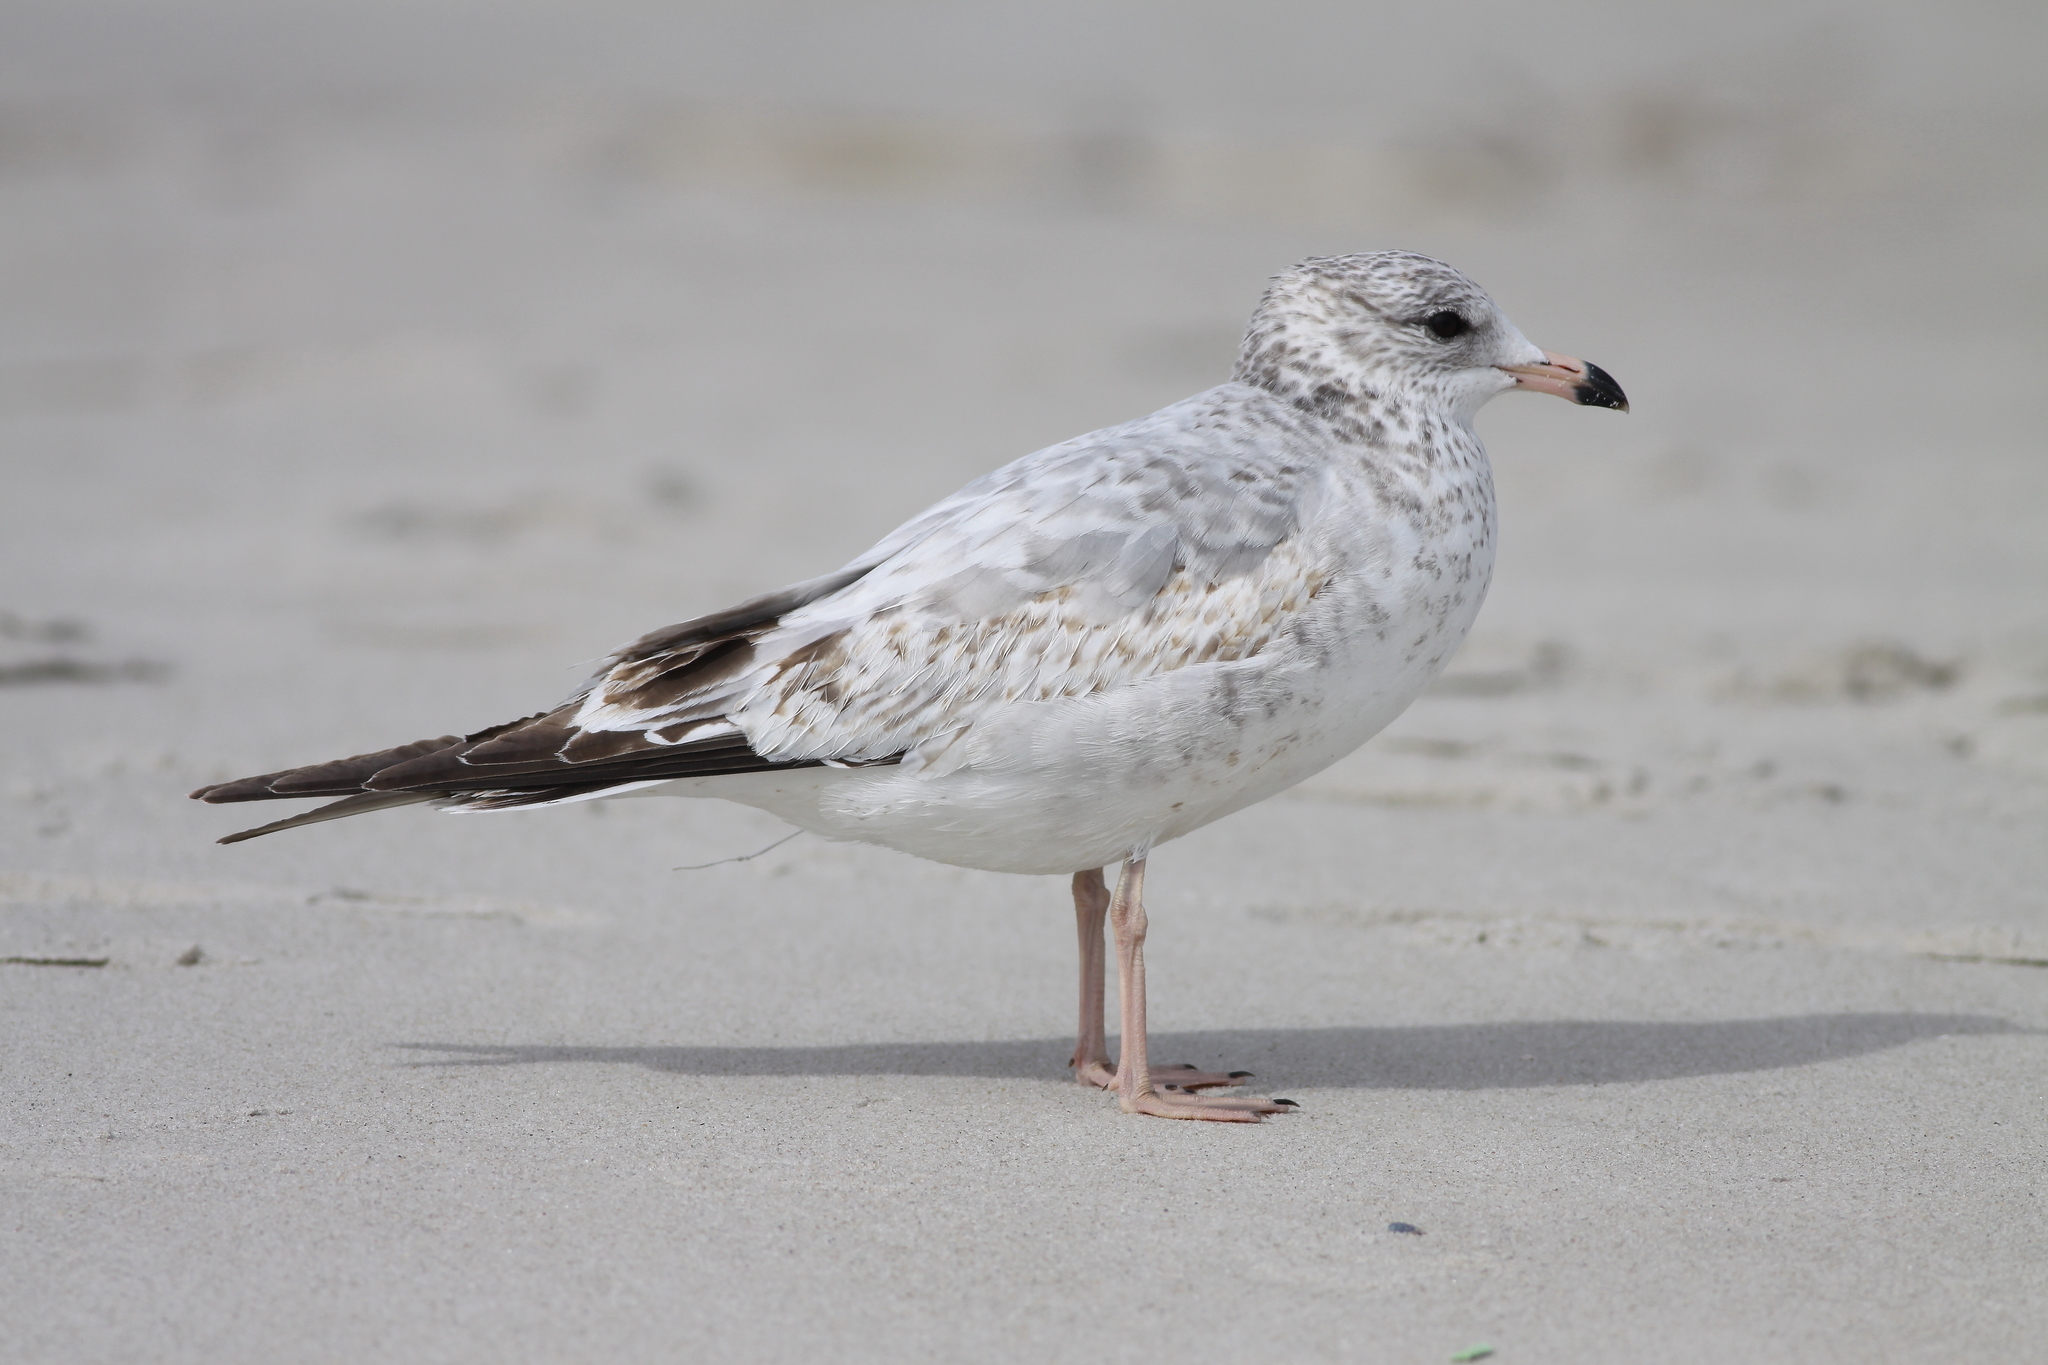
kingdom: Animalia
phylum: Chordata
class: Aves
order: Charadriiformes
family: Laridae
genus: Larus
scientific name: Larus delawarensis
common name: Ring-billed gull
